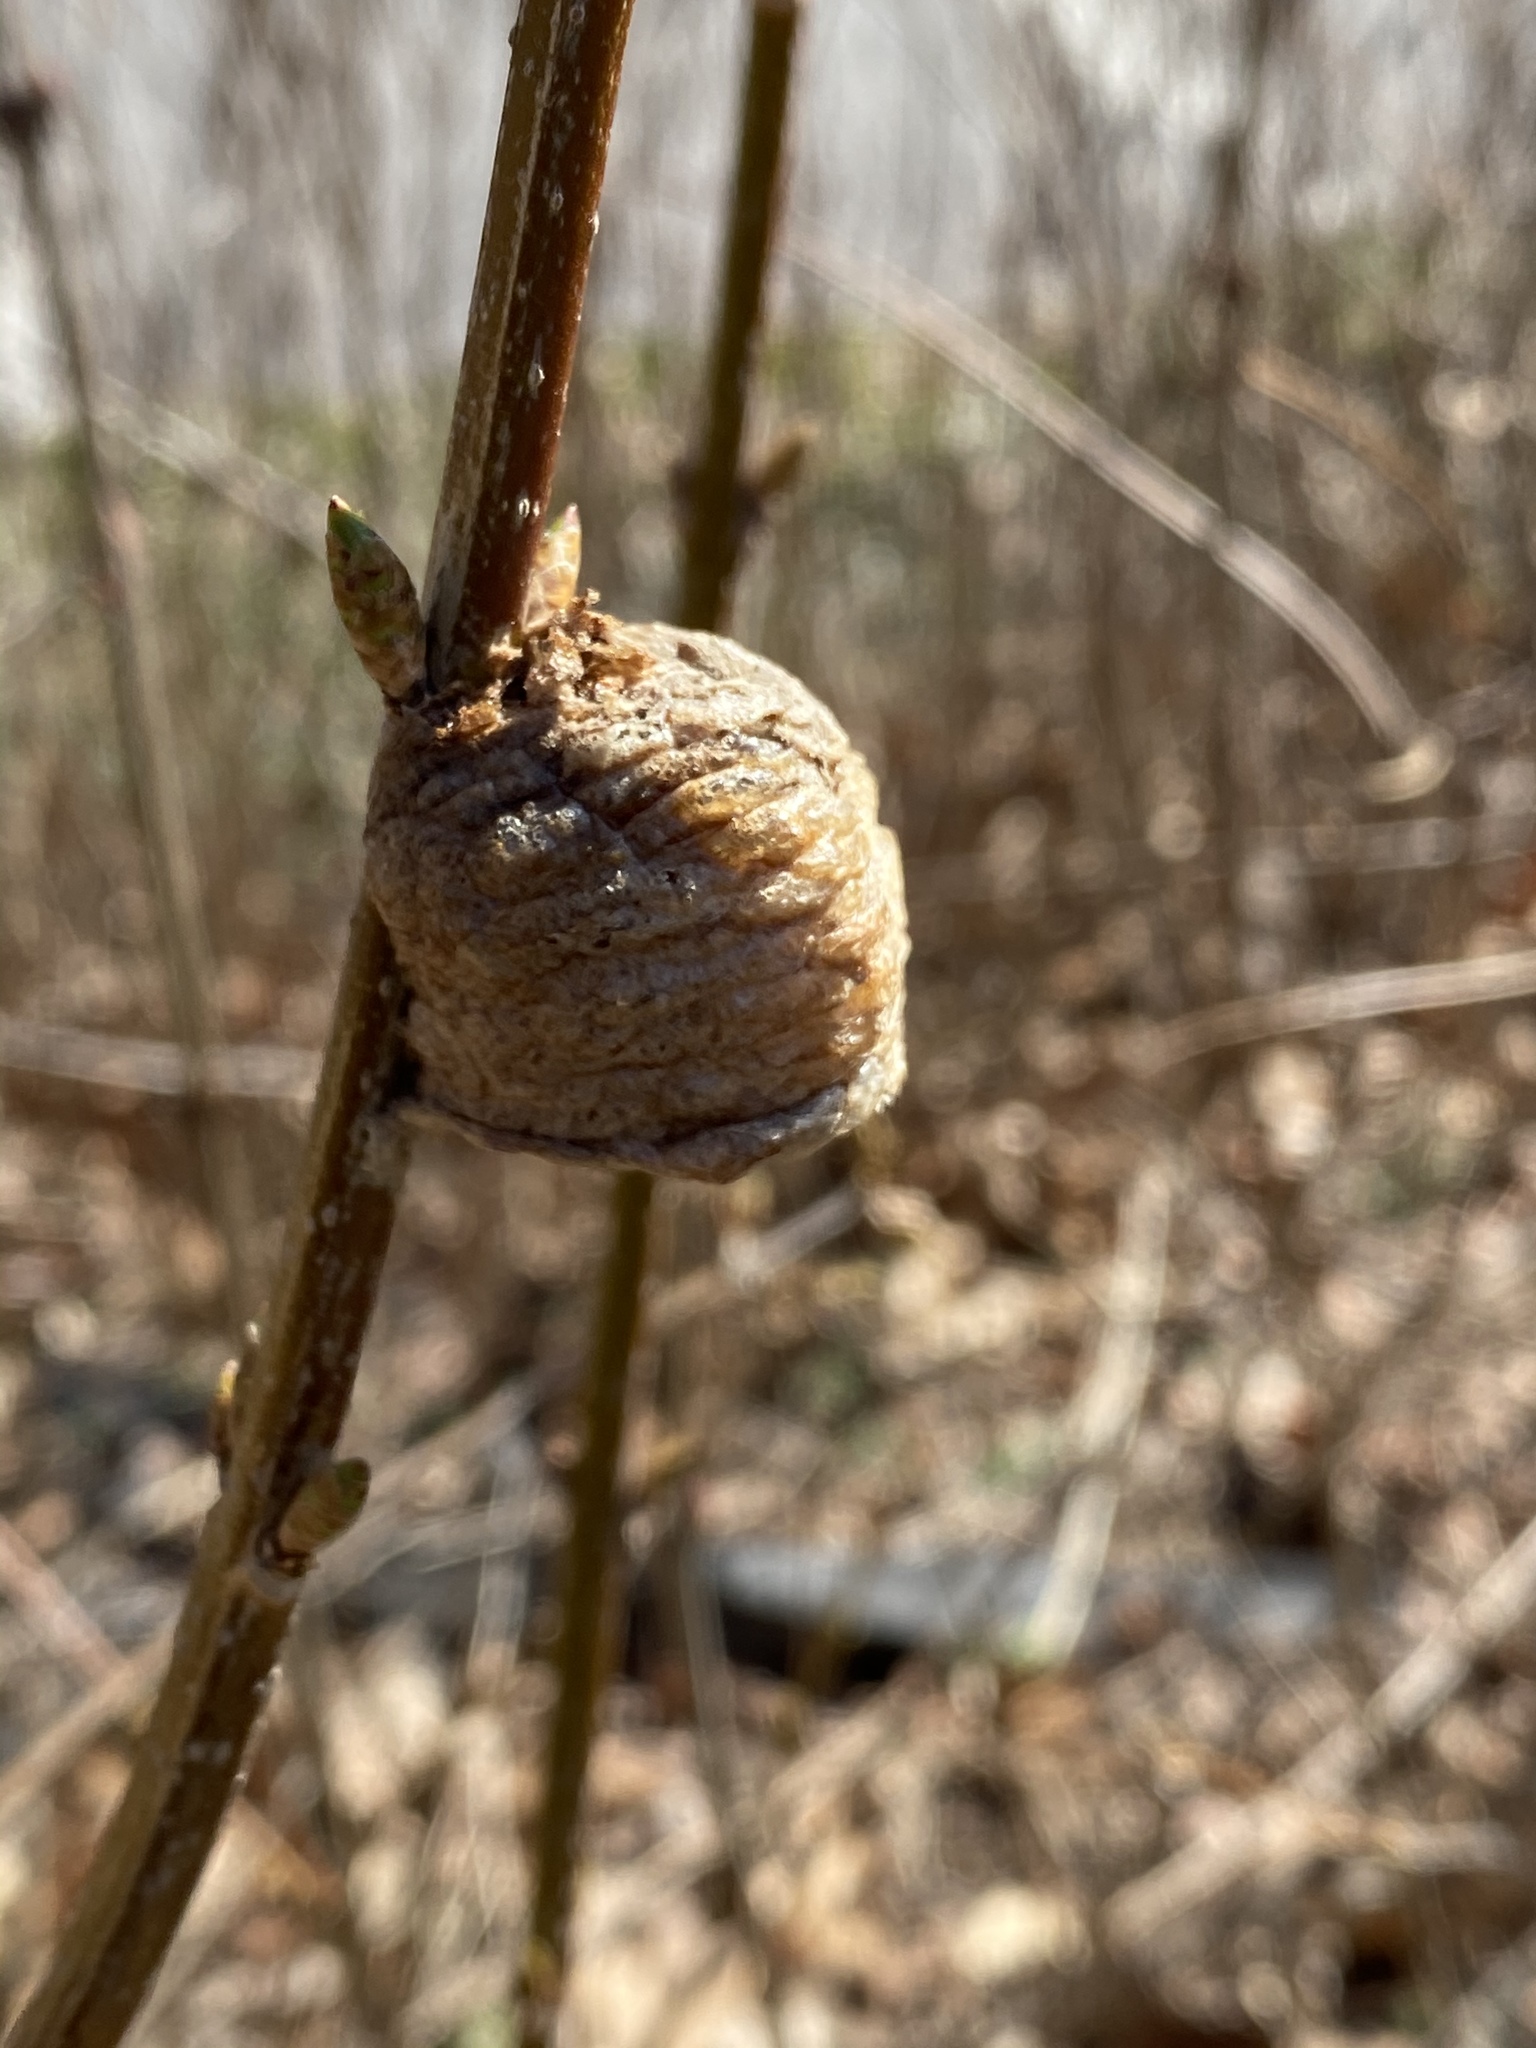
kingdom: Animalia
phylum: Arthropoda
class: Insecta
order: Mantodea
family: Mantidae
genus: Tenodera
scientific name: Tenodera sinensis
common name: Chinese mantis
